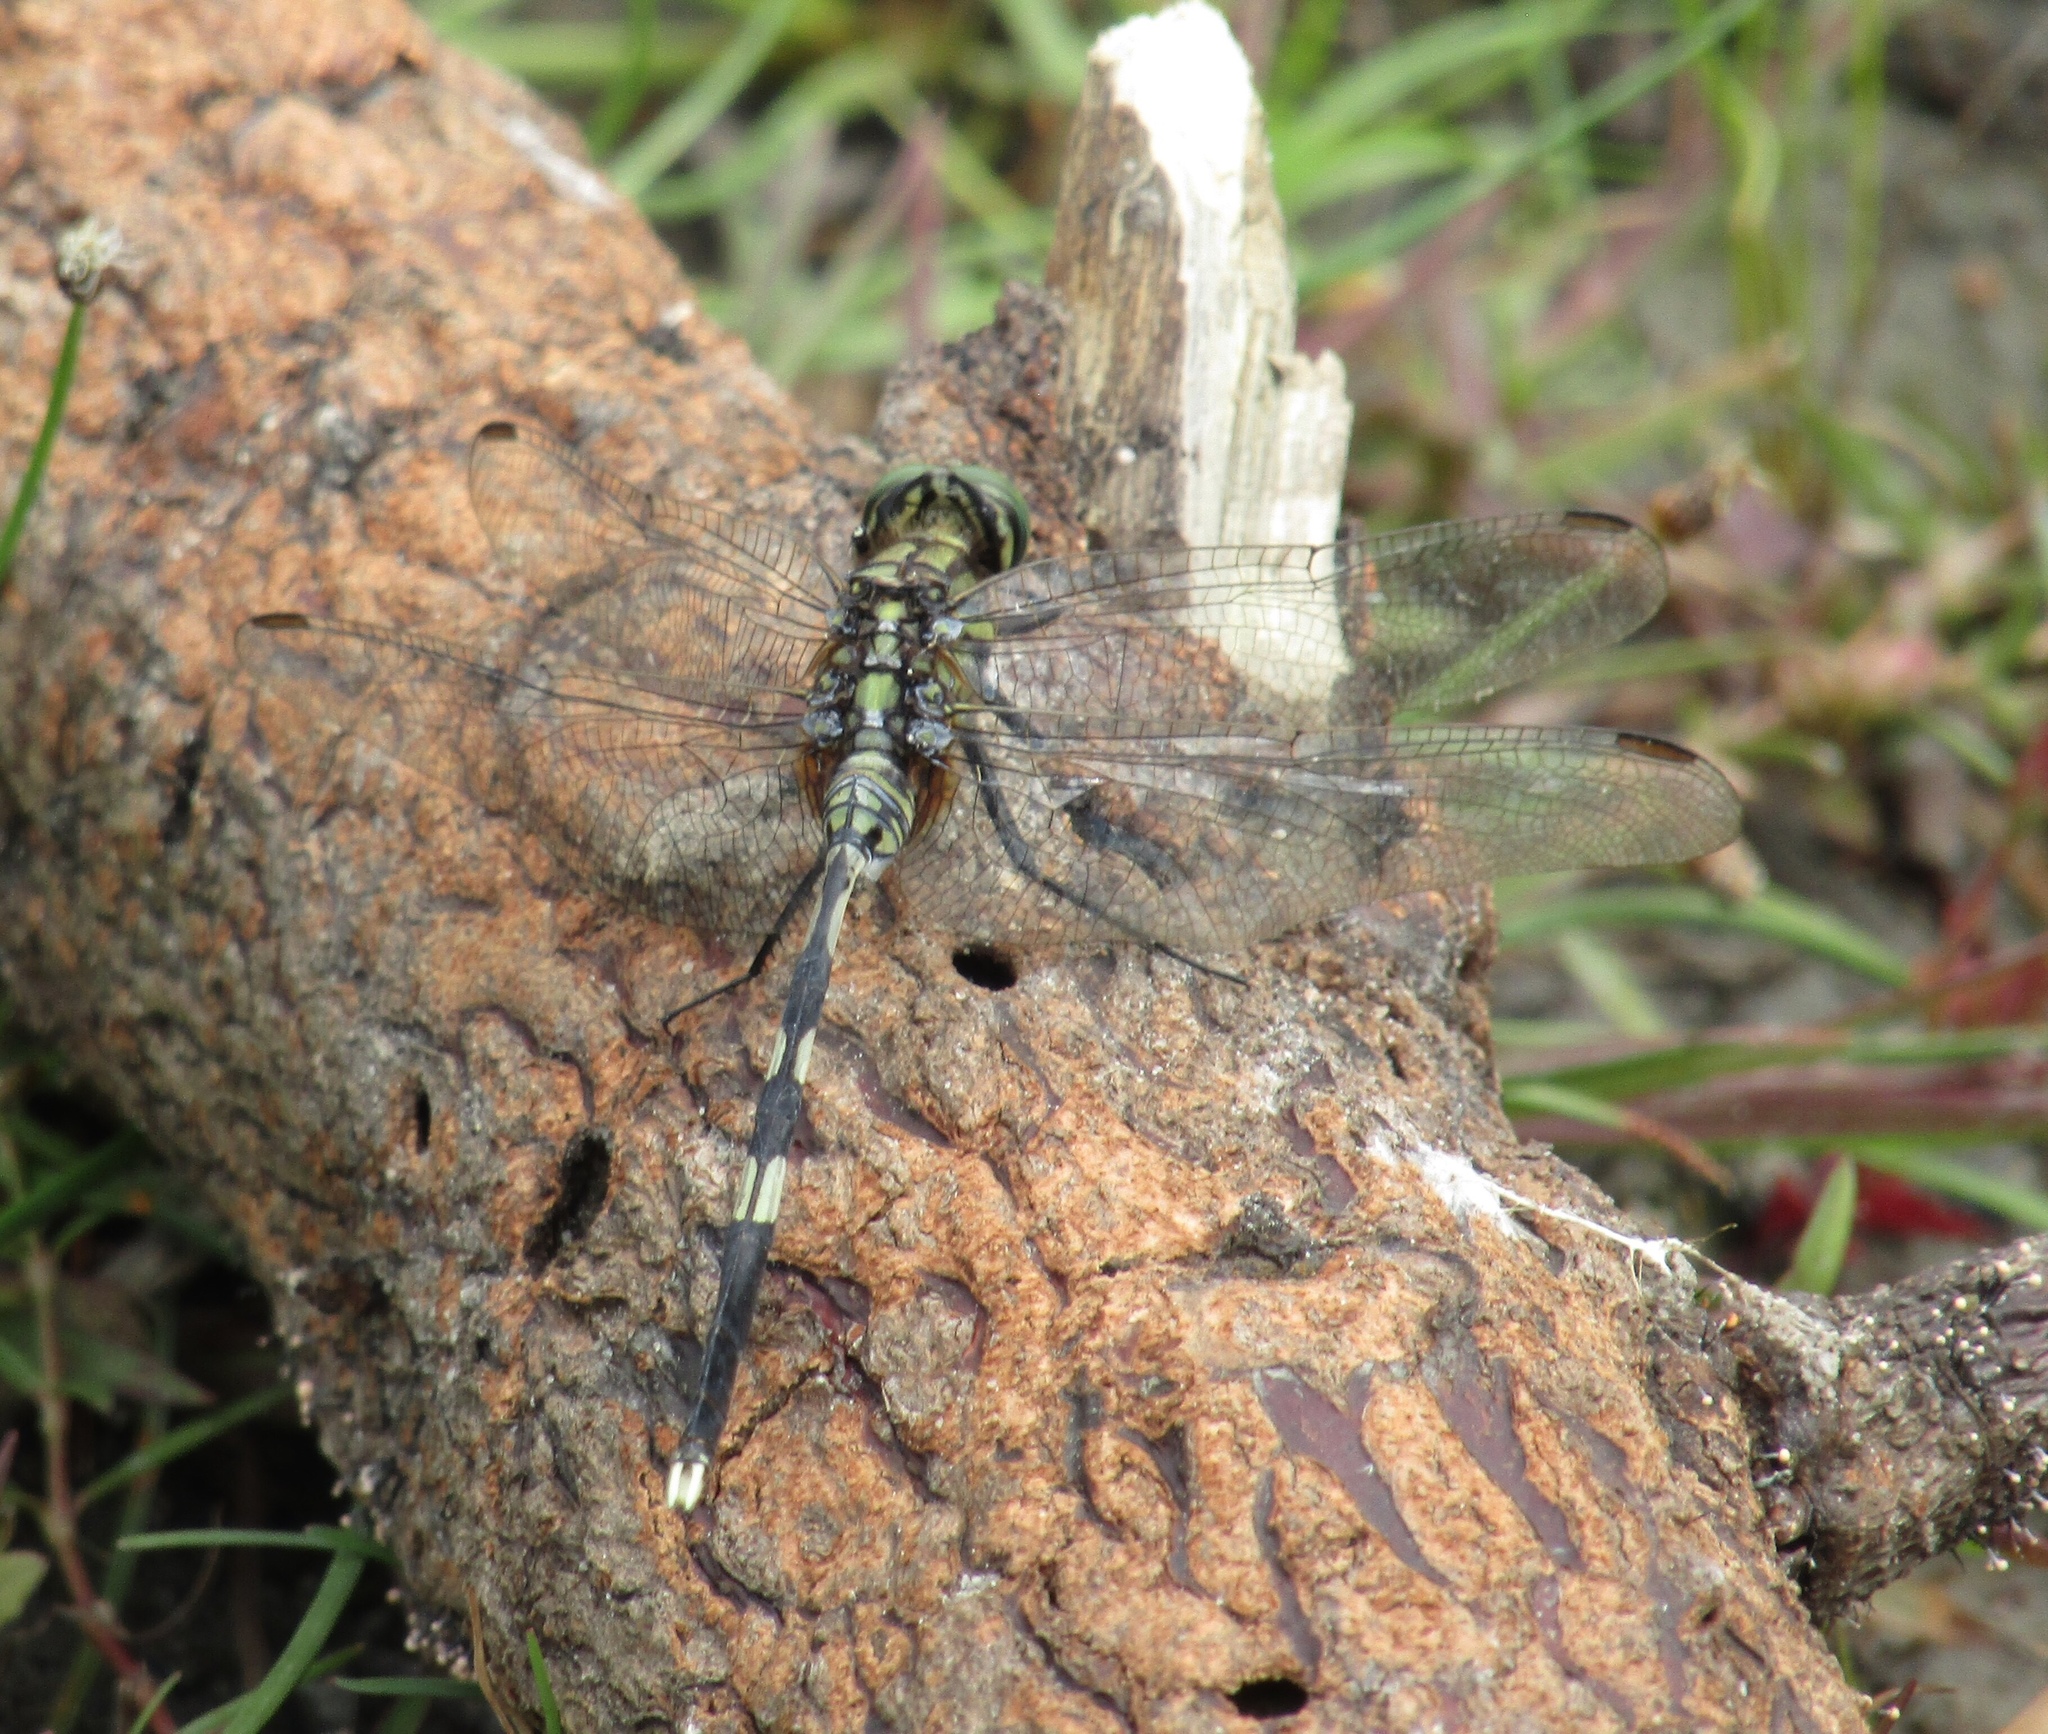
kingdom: Animalia
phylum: Arthropoda
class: Insecta
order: Odonata
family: Libellulidae
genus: Orthetrum
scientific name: Orthetrum sabina
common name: Slender skimmer
